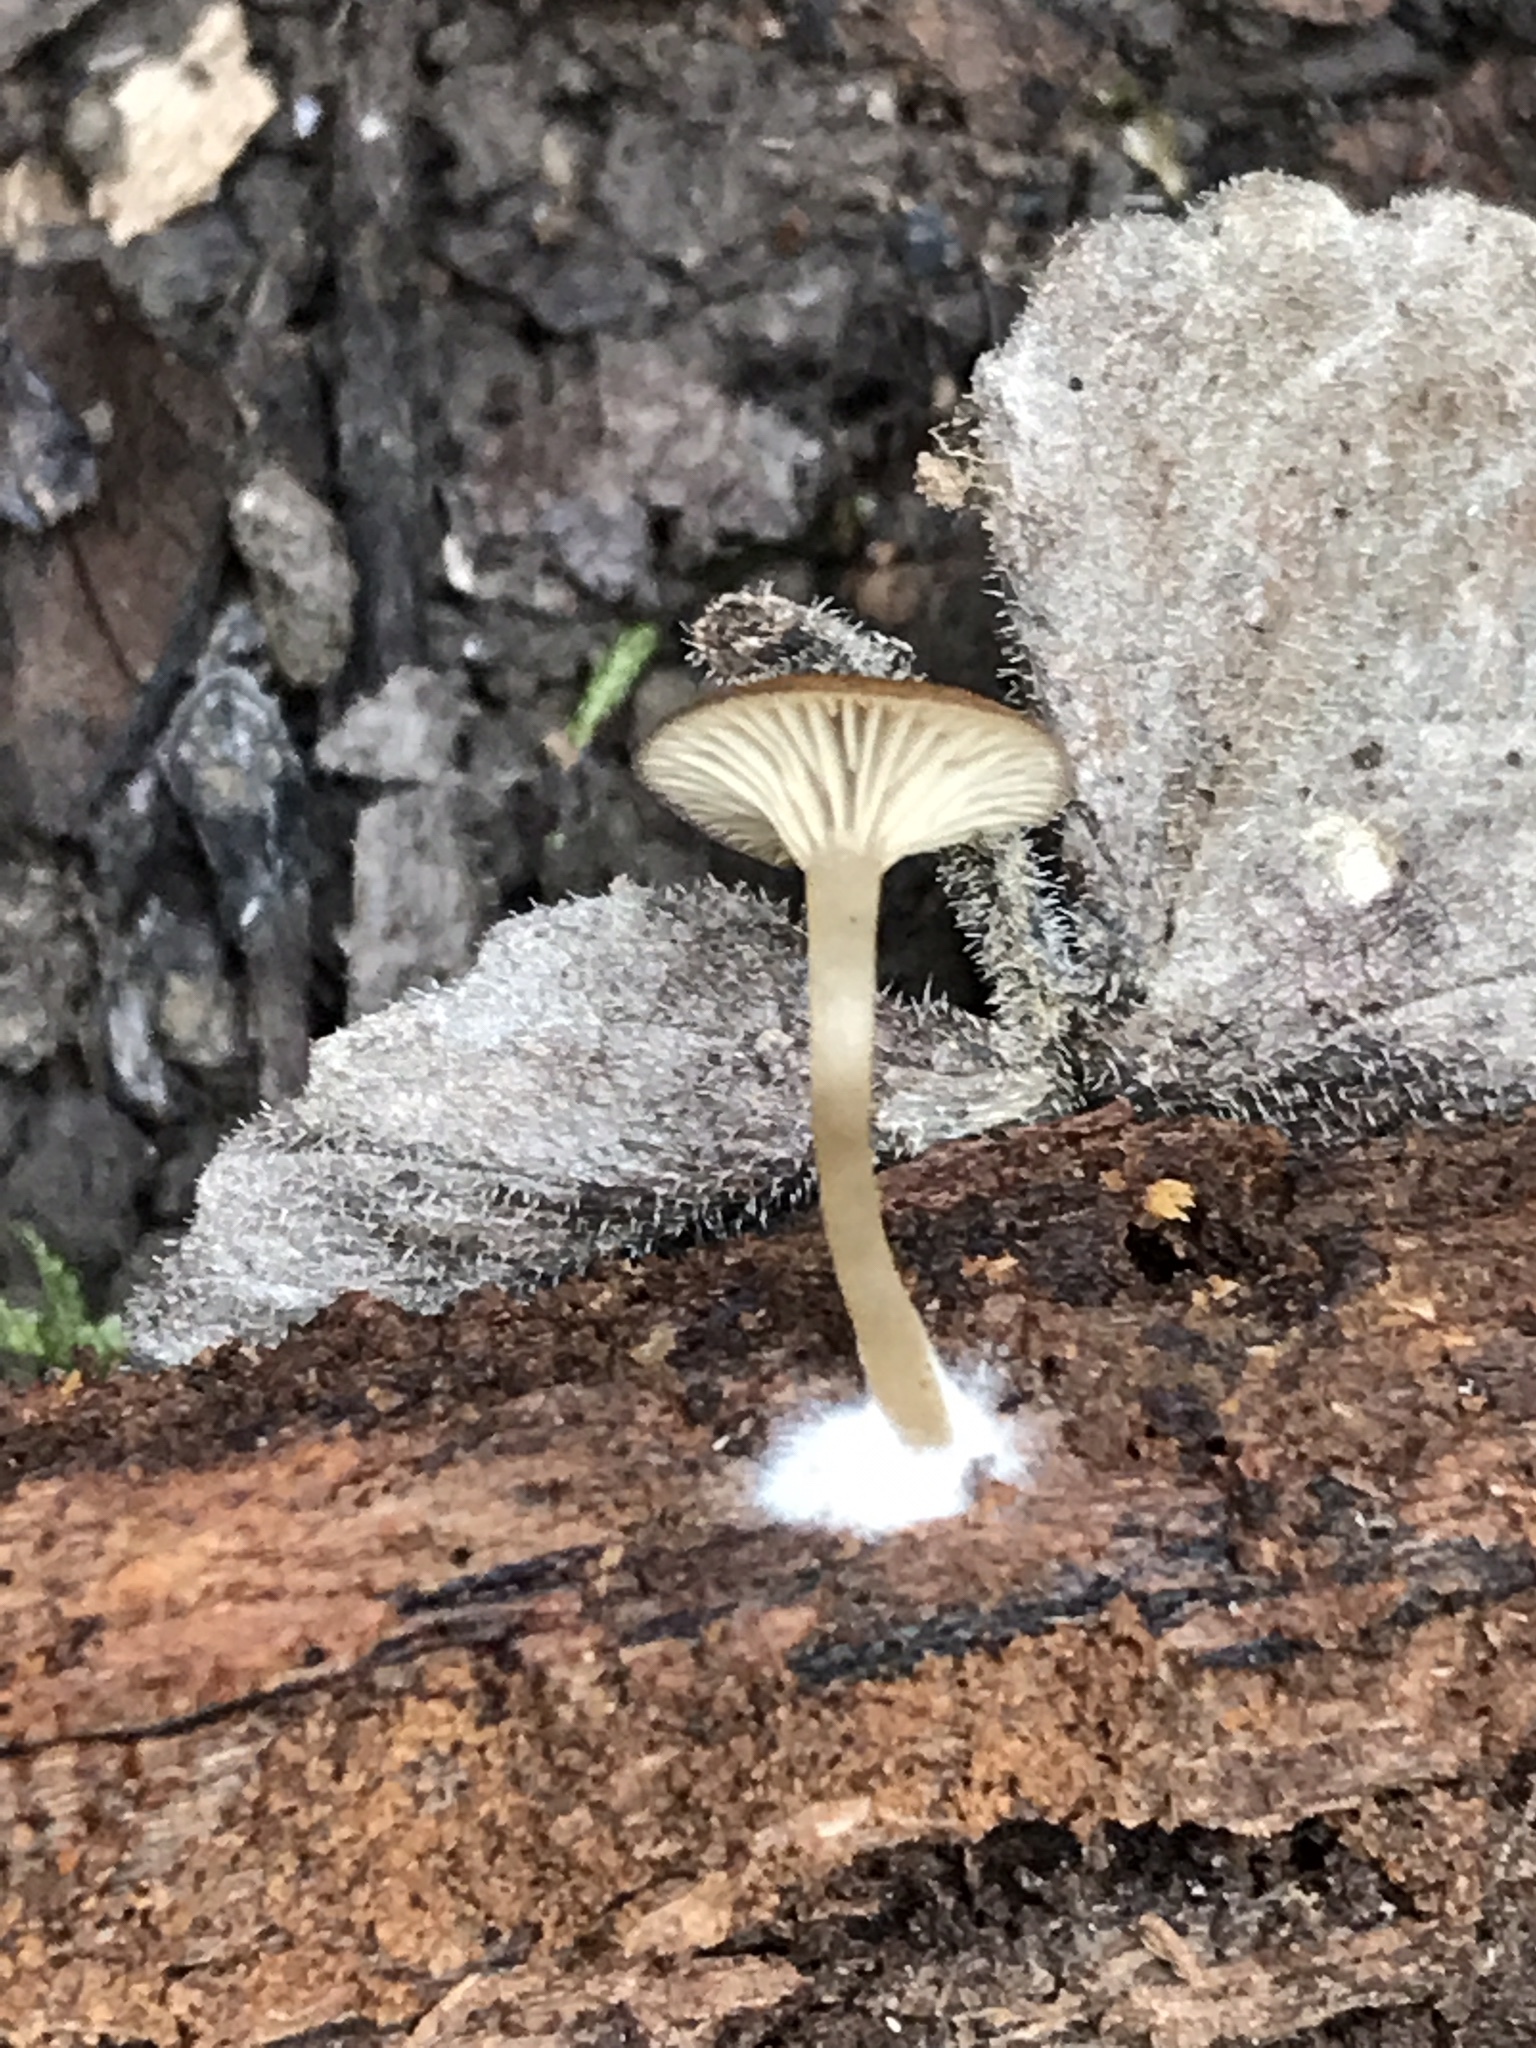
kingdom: Fungi
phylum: Basidiomycota
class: Agaricomycetes
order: Agaricales
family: Hygrophoraceae
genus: Arrhenia
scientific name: Arrhenia epichysium
